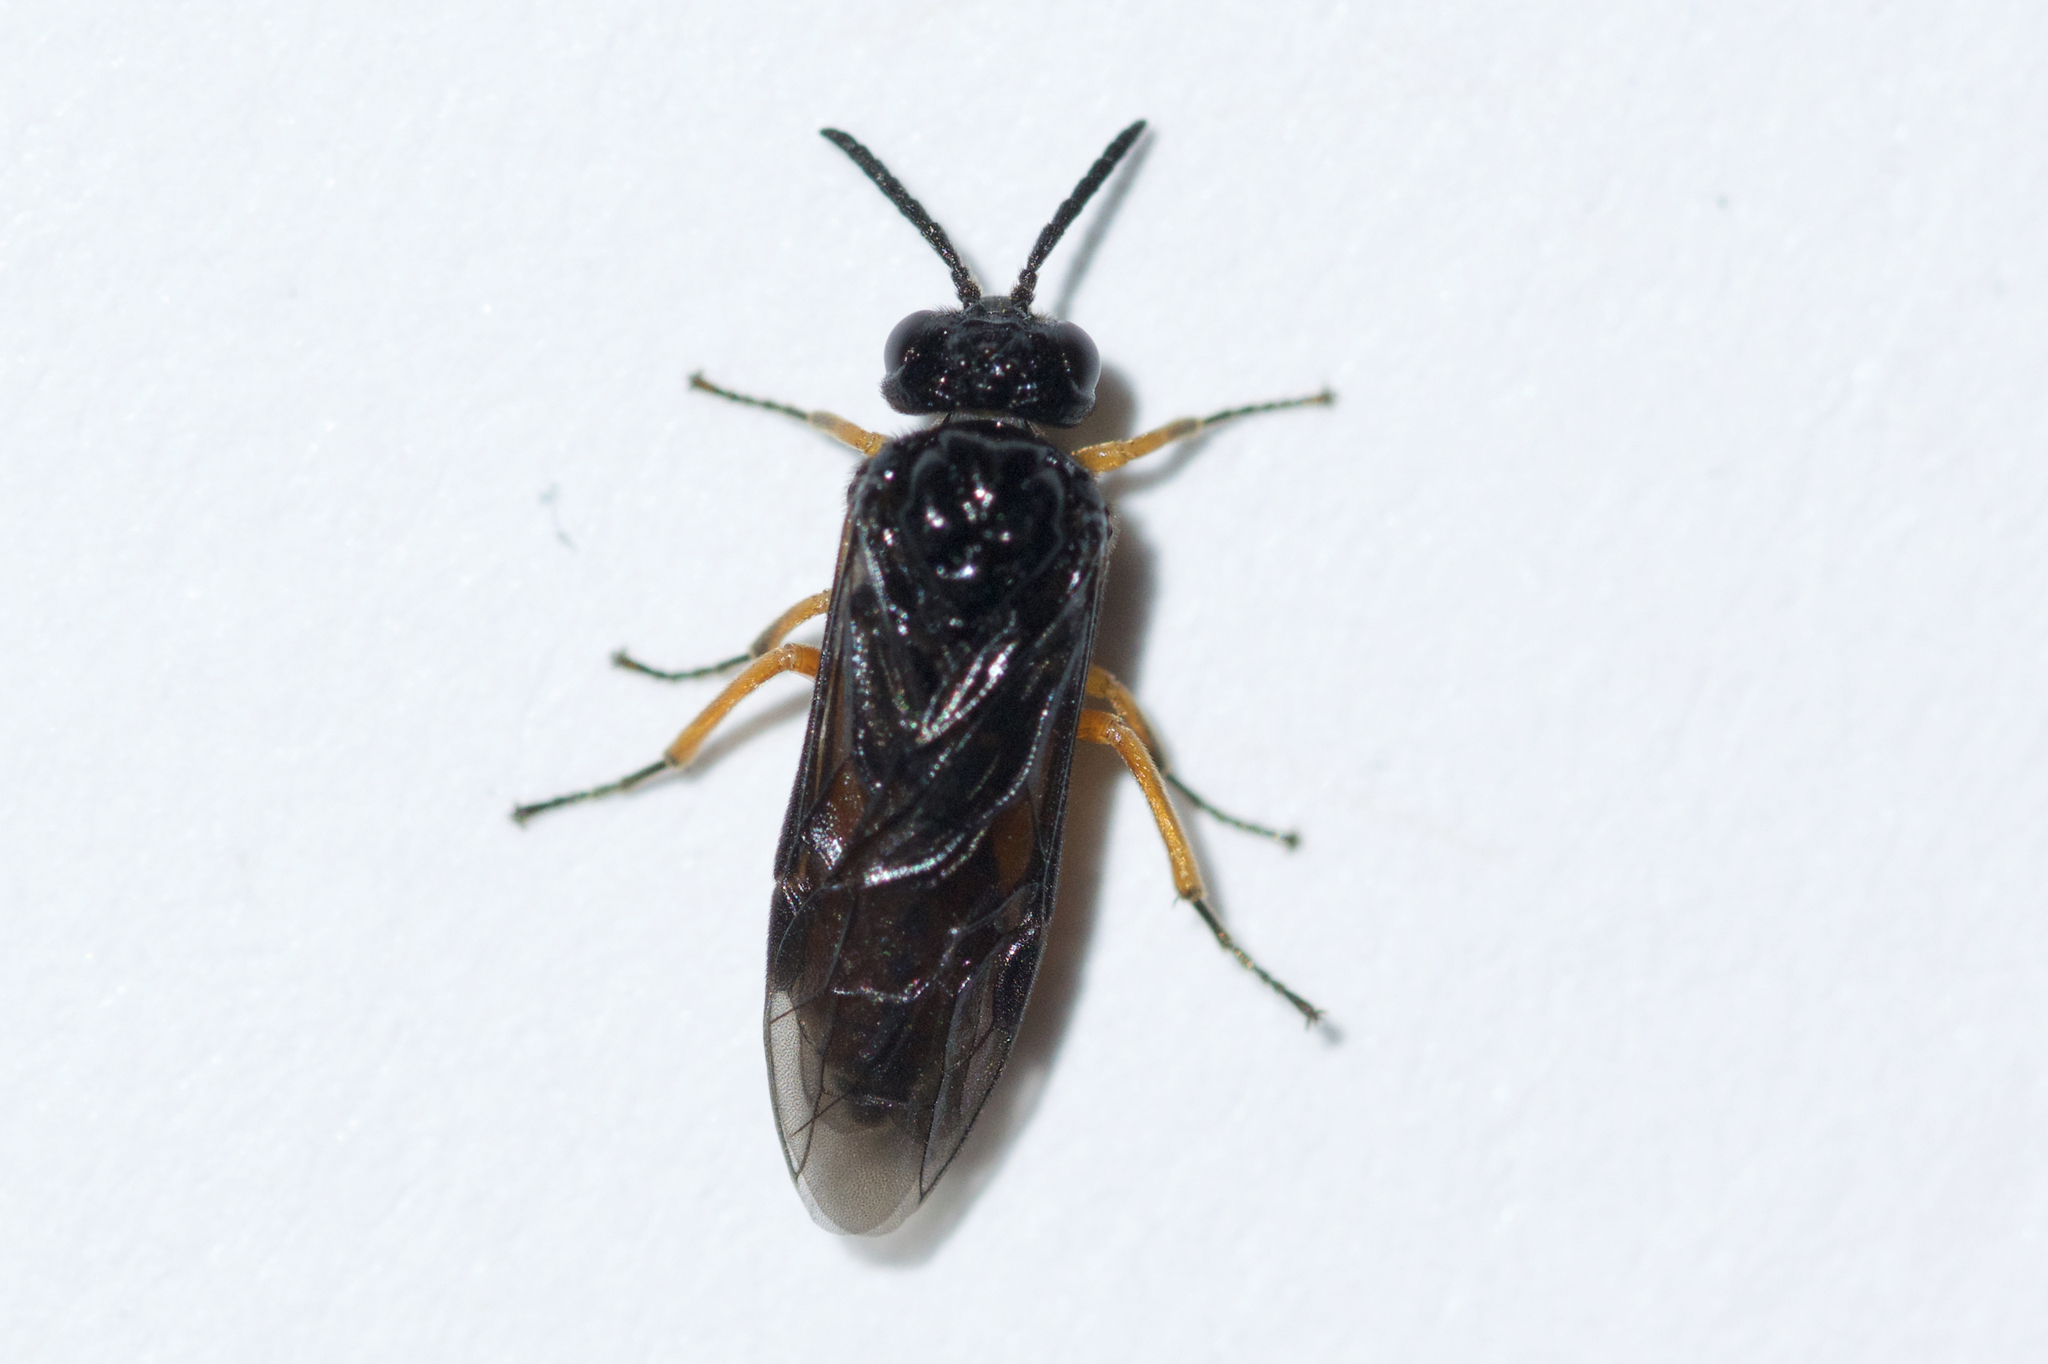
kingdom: Animalia
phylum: Arthropoda
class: Insecta
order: Hymenoptera
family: Tenthredinidae
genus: Eutomostethus
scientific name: Eutomostethus luteiventris
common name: Tenthredid wasp
